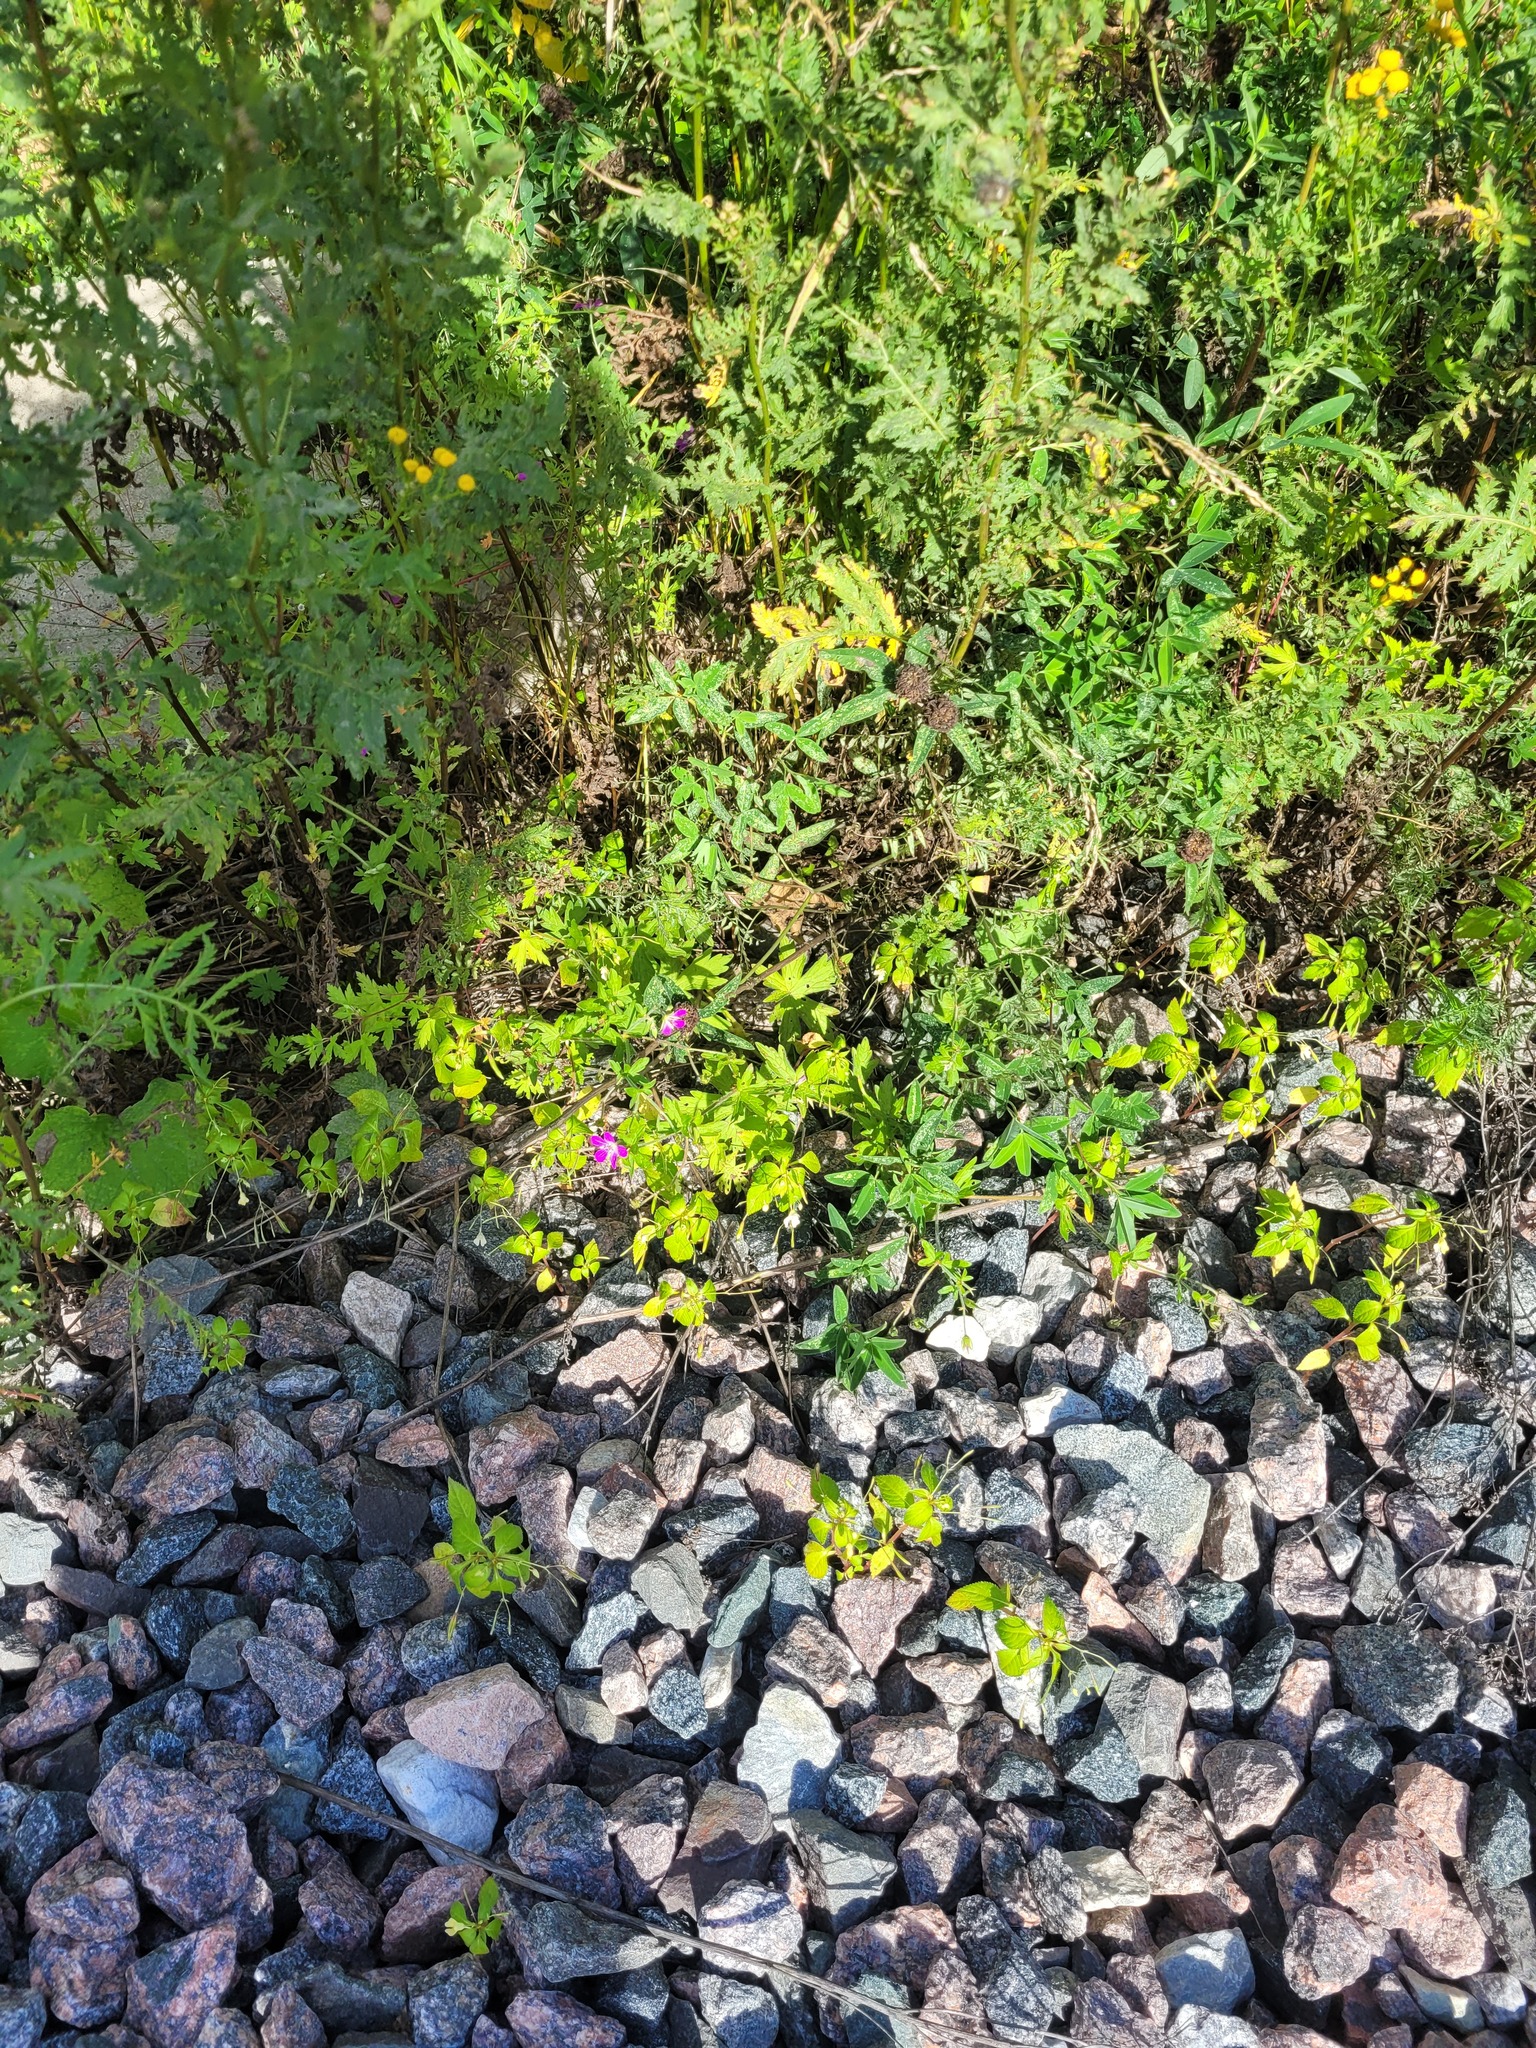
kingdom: Plantae
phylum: Tracheophyta
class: Magnoliopsida
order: Geraniales
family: Geraniaceae
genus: Geranium
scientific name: Geranium palustre
